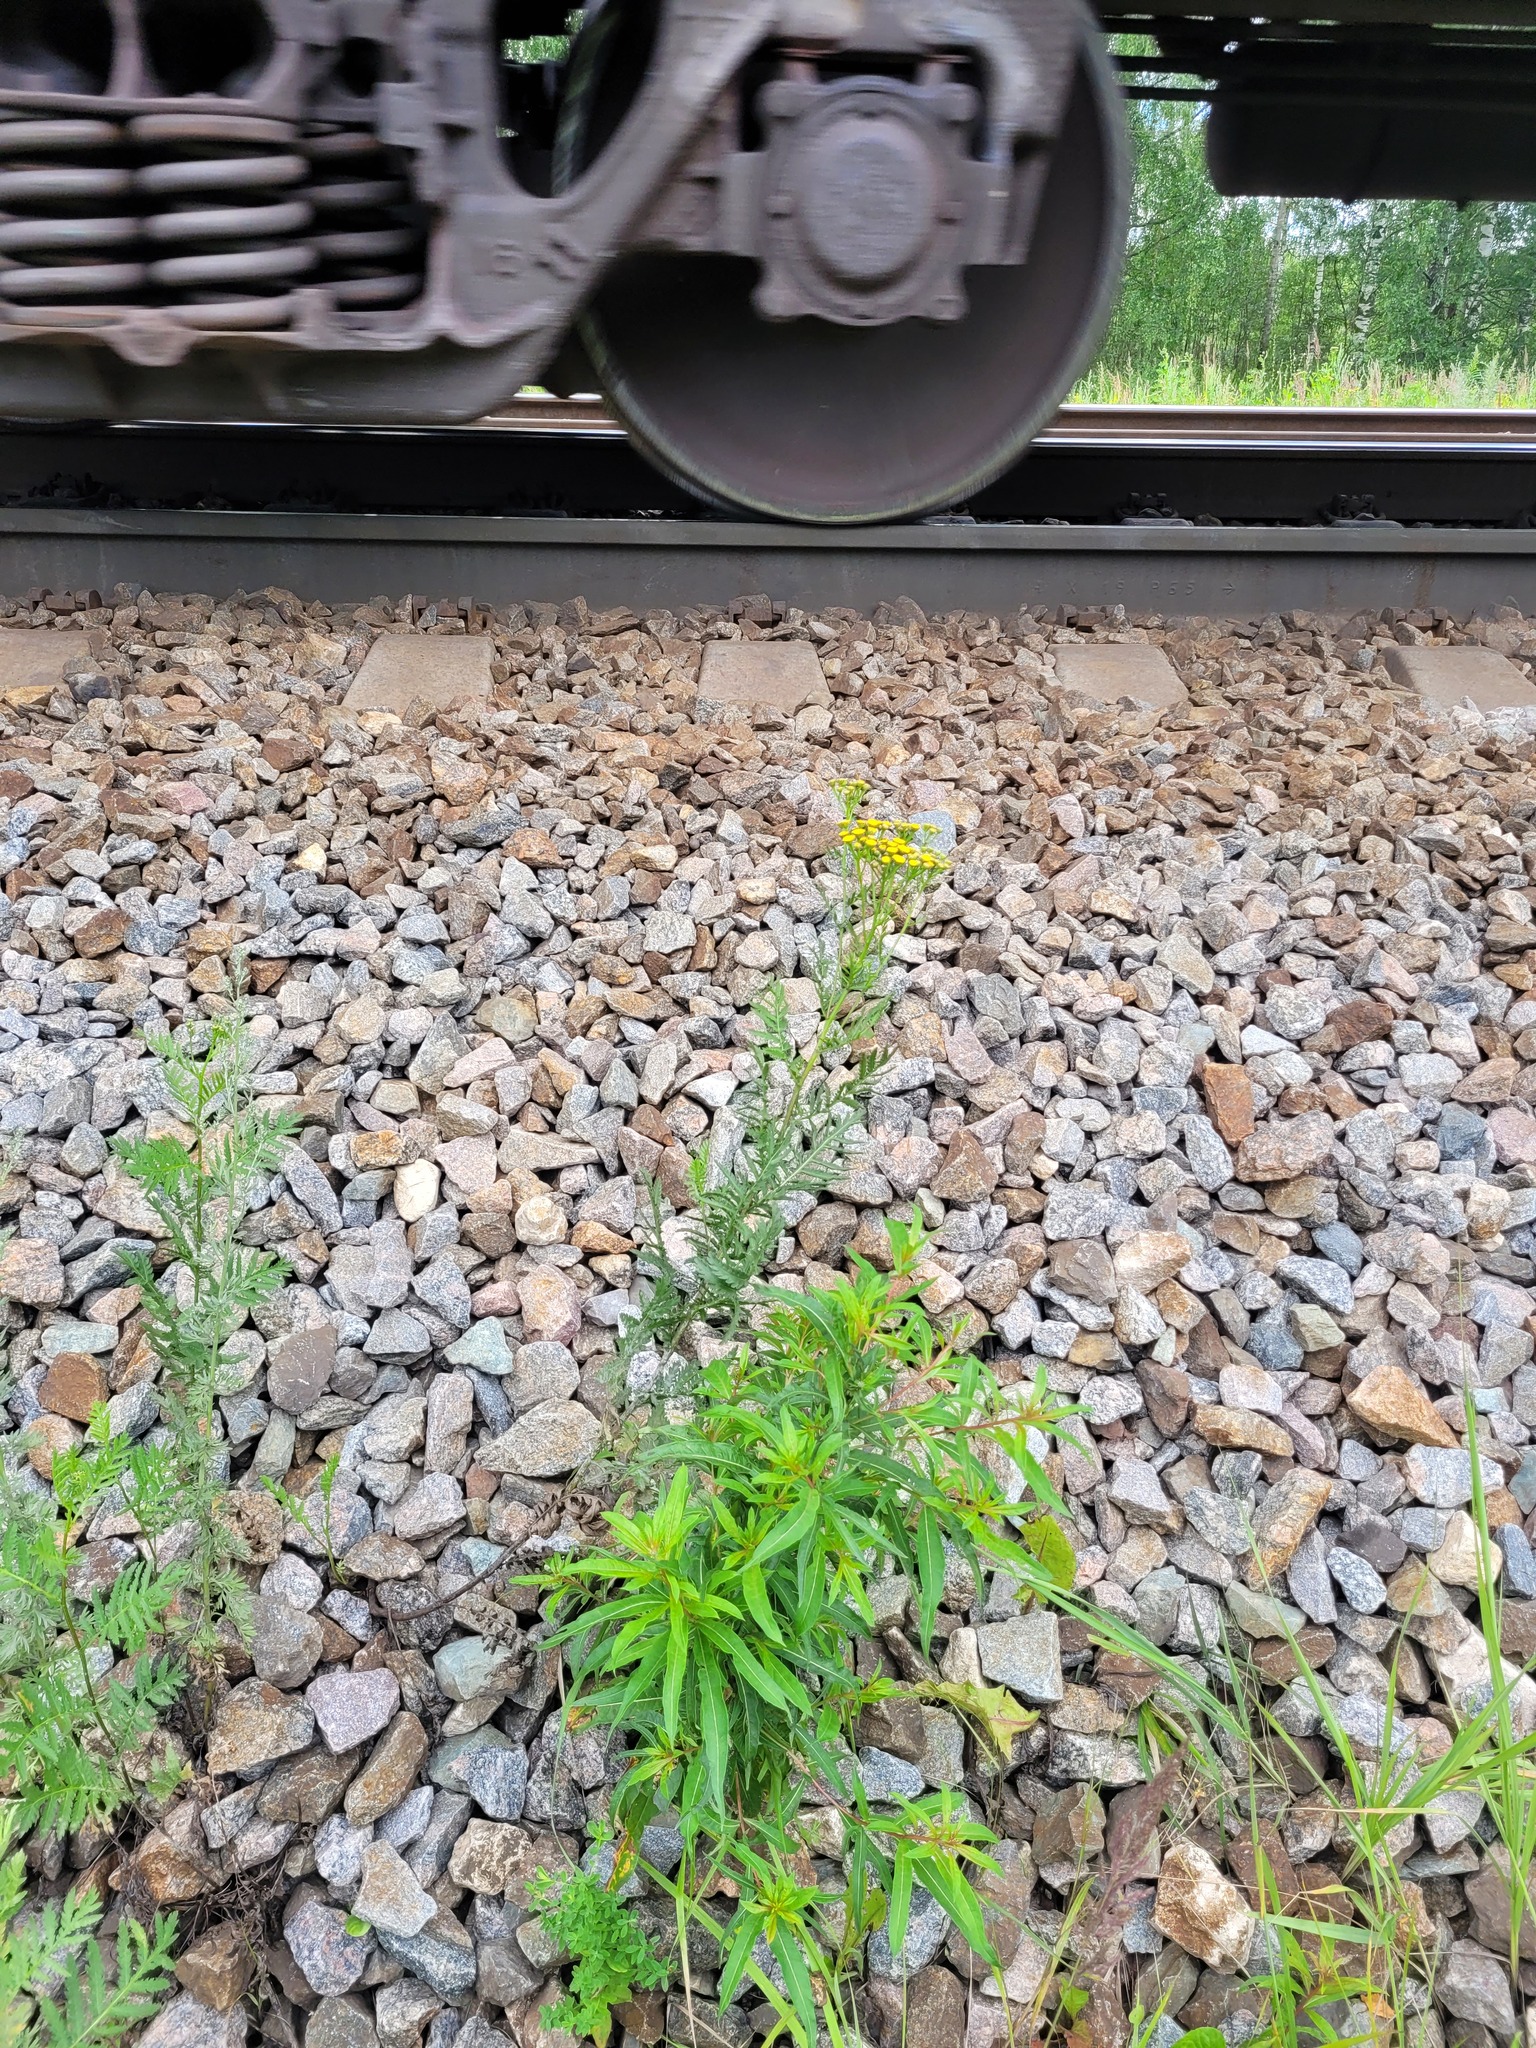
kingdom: Plantae
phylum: Tracheophyta
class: Magnoliopsida
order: Asterales
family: Asteraceae
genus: Tanacetum
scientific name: Tanacetum vulgare
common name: Common tansy
